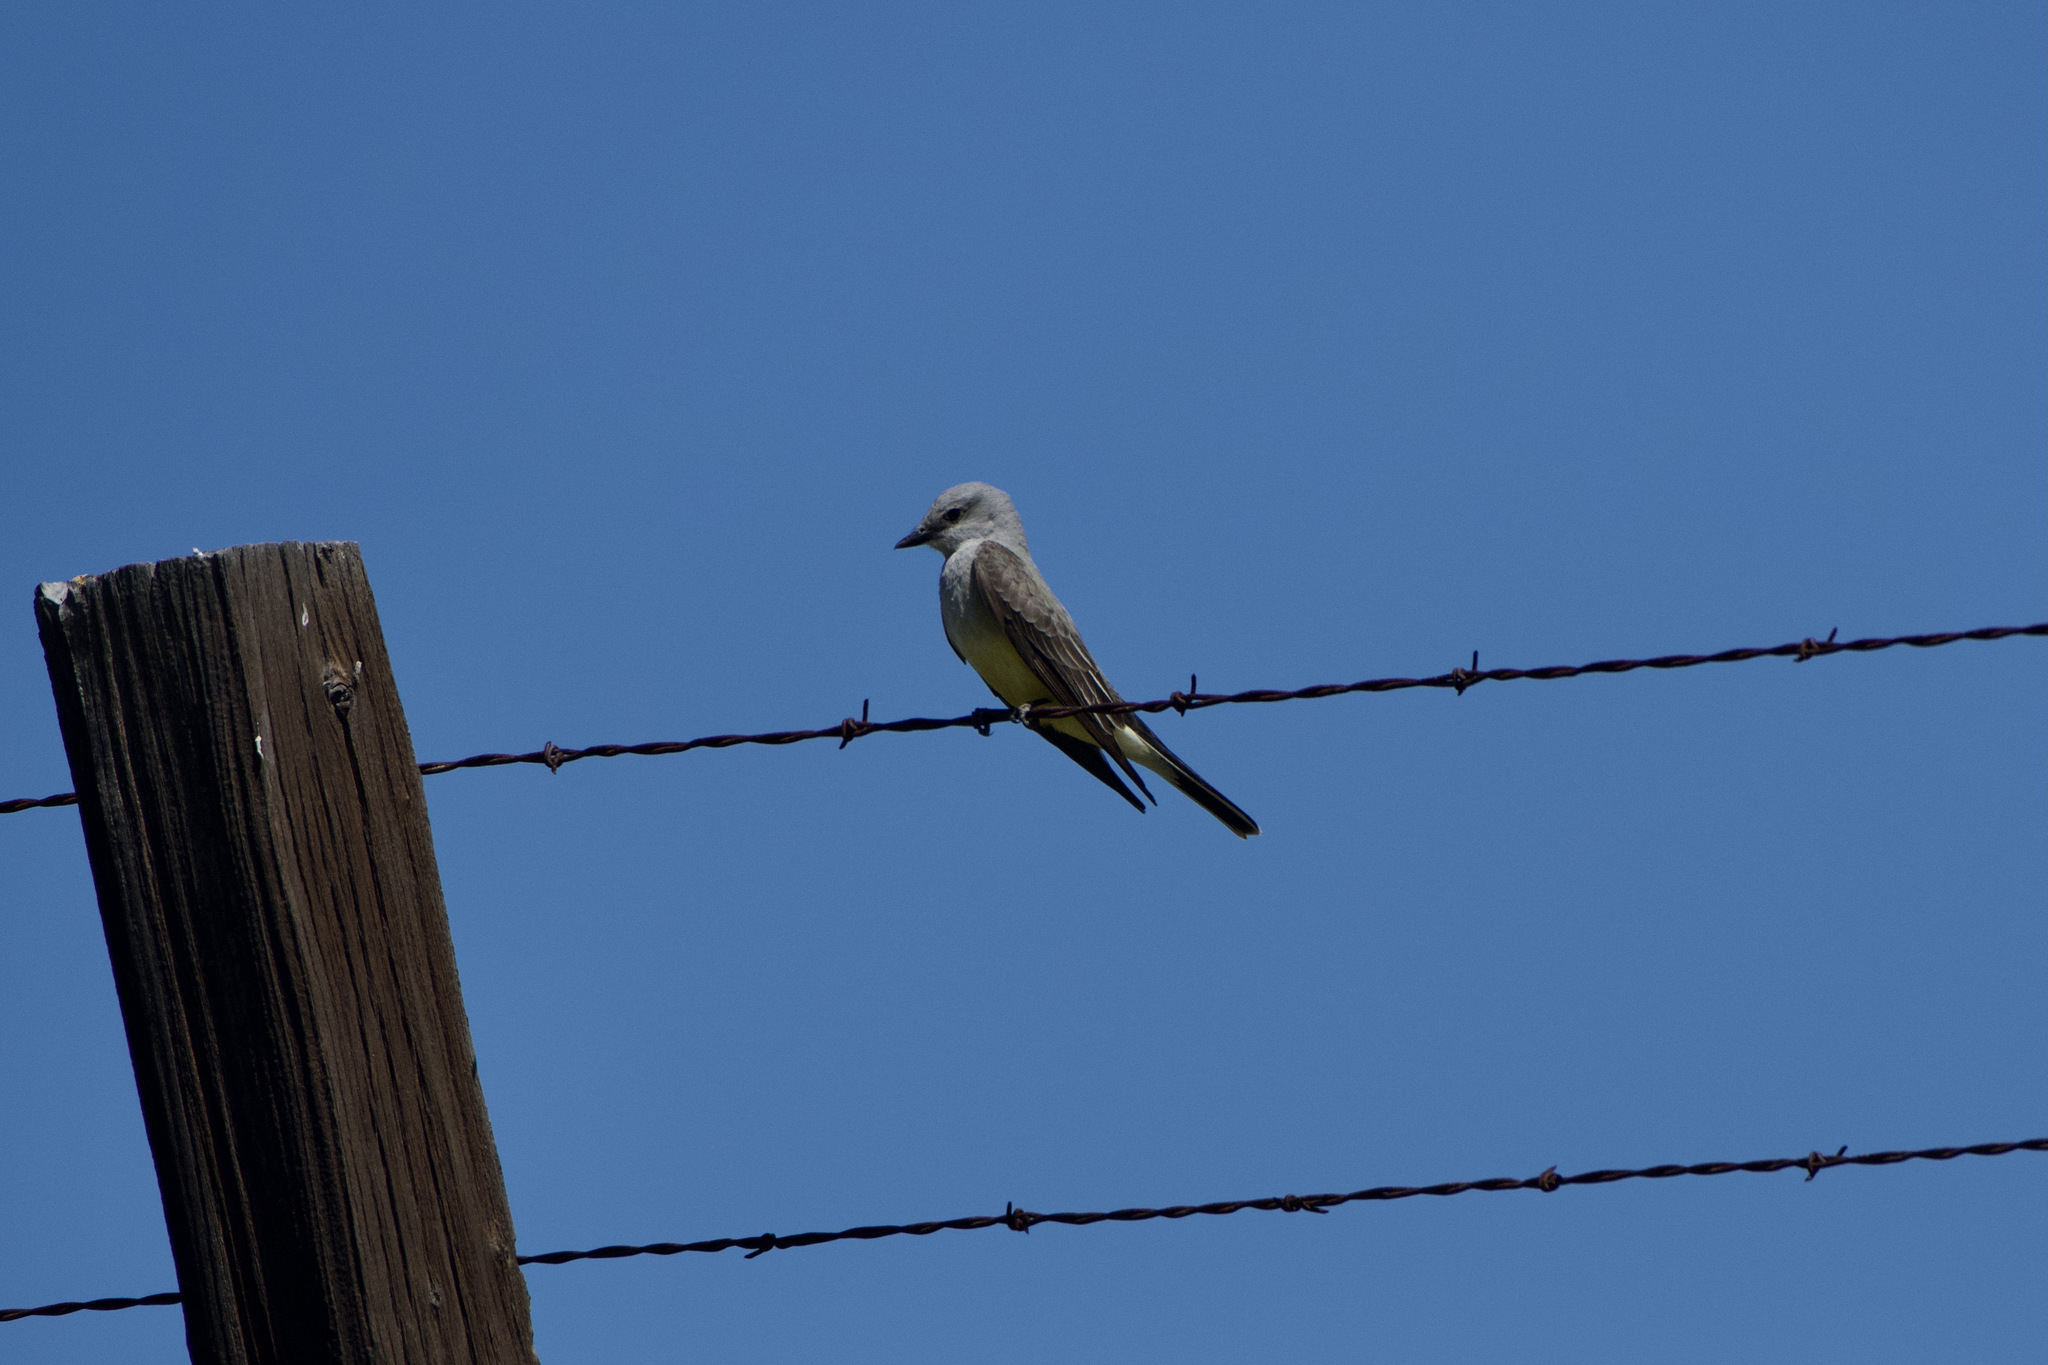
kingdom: Animalia
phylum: Chordata
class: Aves
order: Passeriformes
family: Tyrannidae
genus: Tyrannus
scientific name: Tyrannus verticalis
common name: Western kingbird
